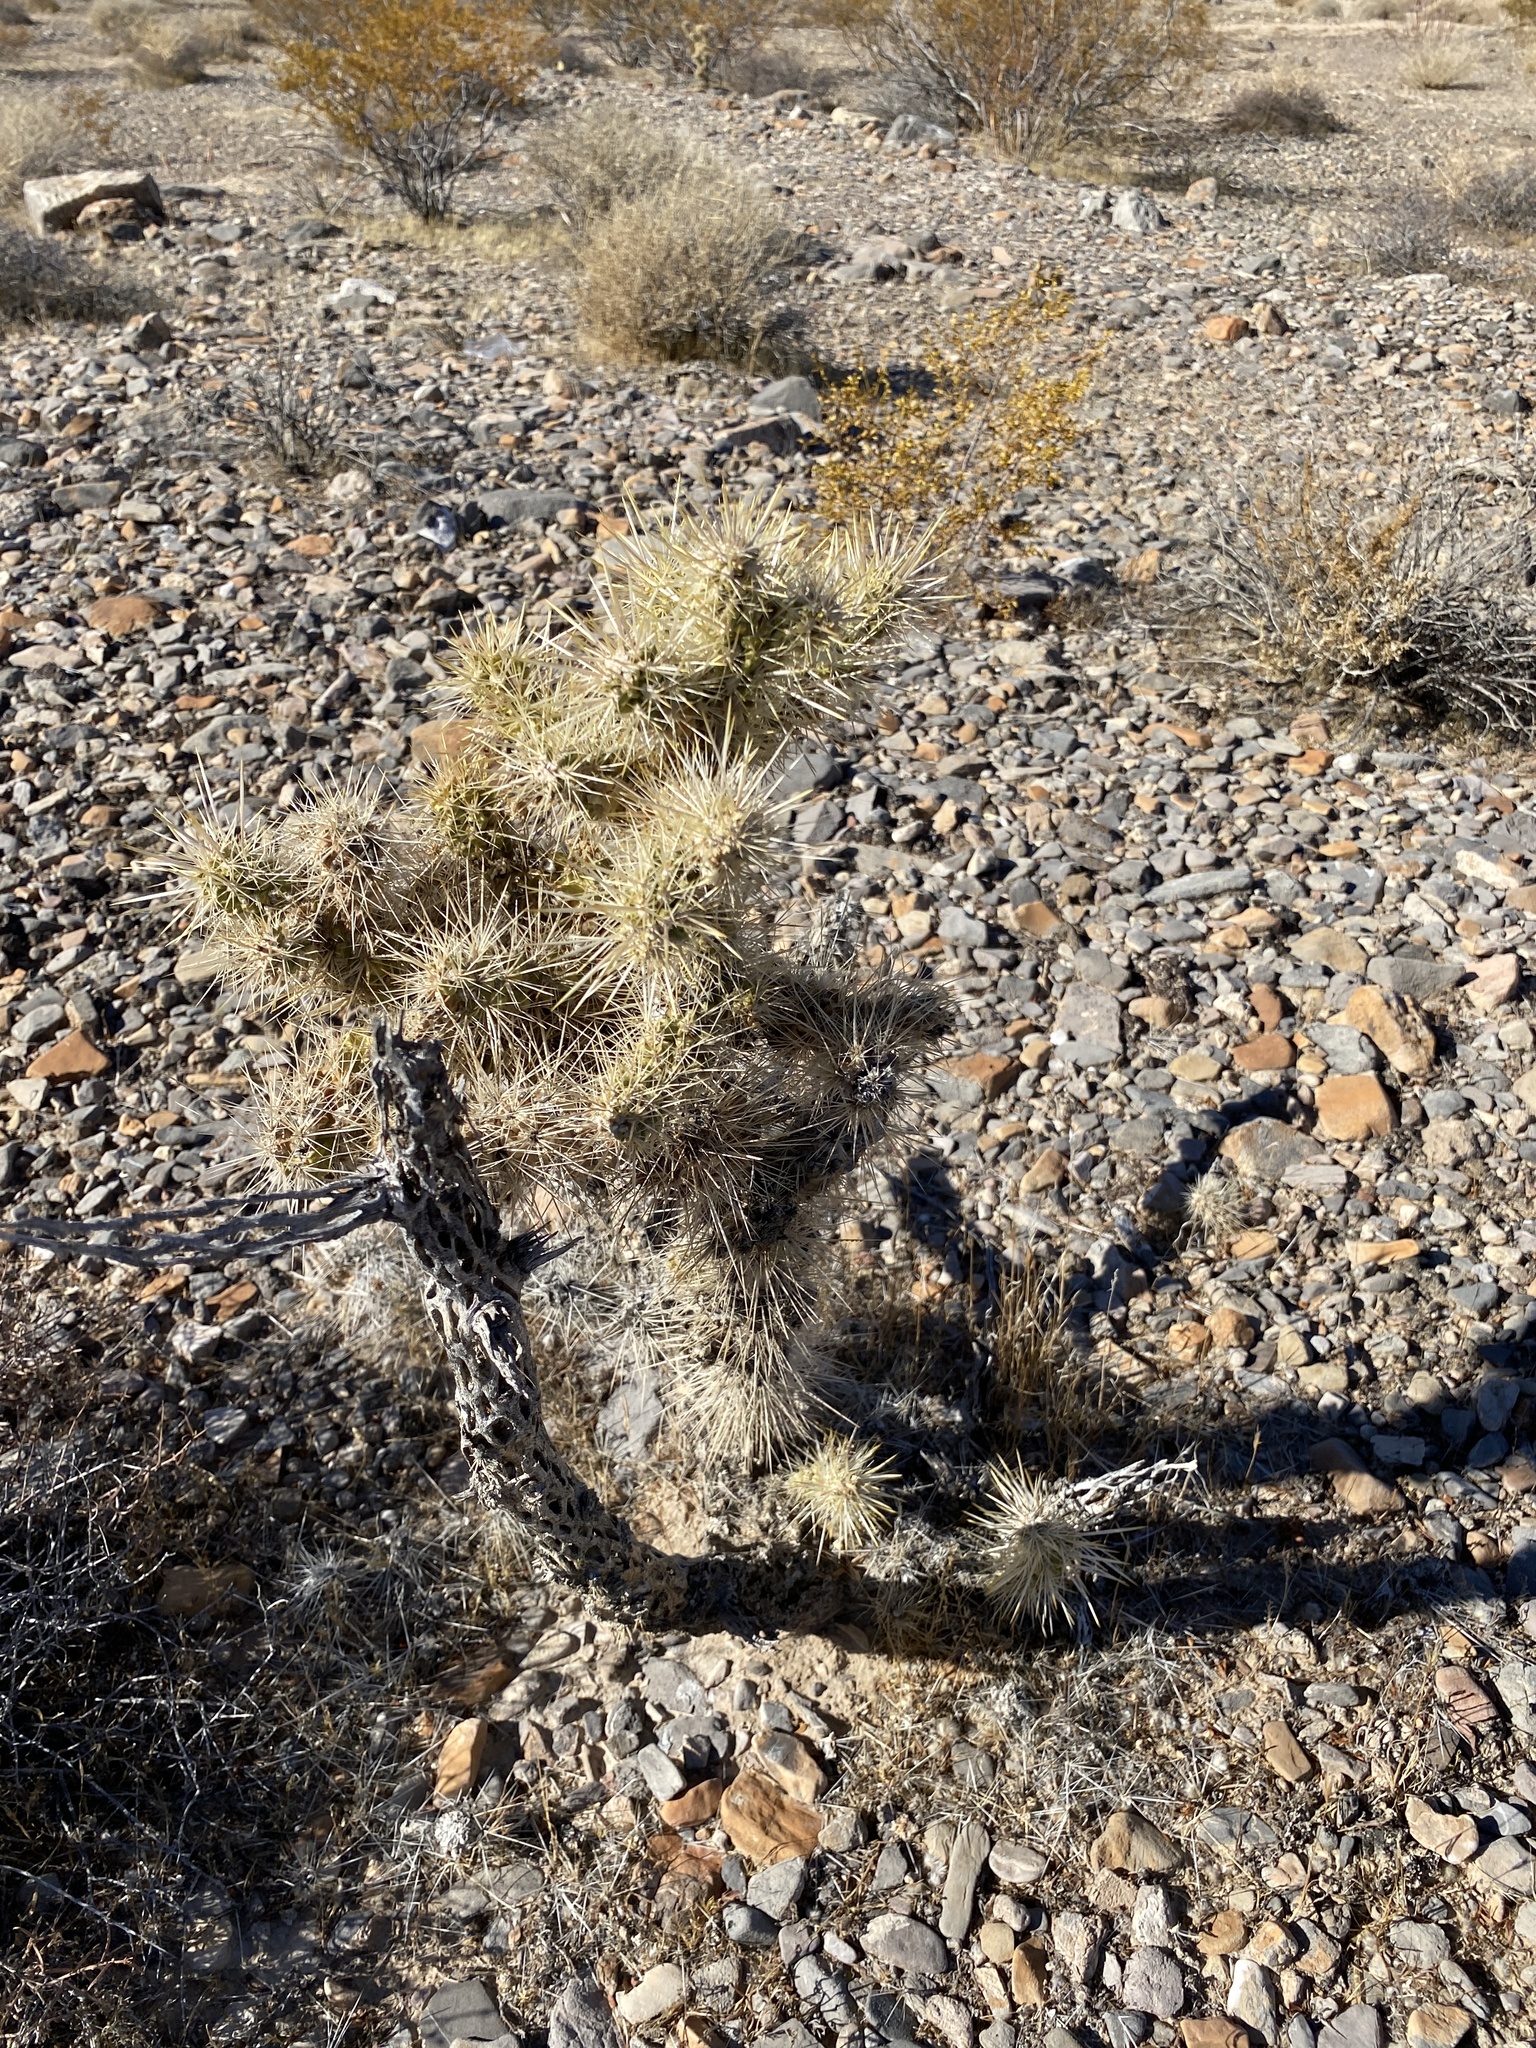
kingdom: Plantae
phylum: Tracheophyta
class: Magnoliopsida
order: Caryophyllales
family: Cactaceae
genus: Cylindropuntia
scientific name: Cylindropuntia echinocarpa
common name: Ground cholla
